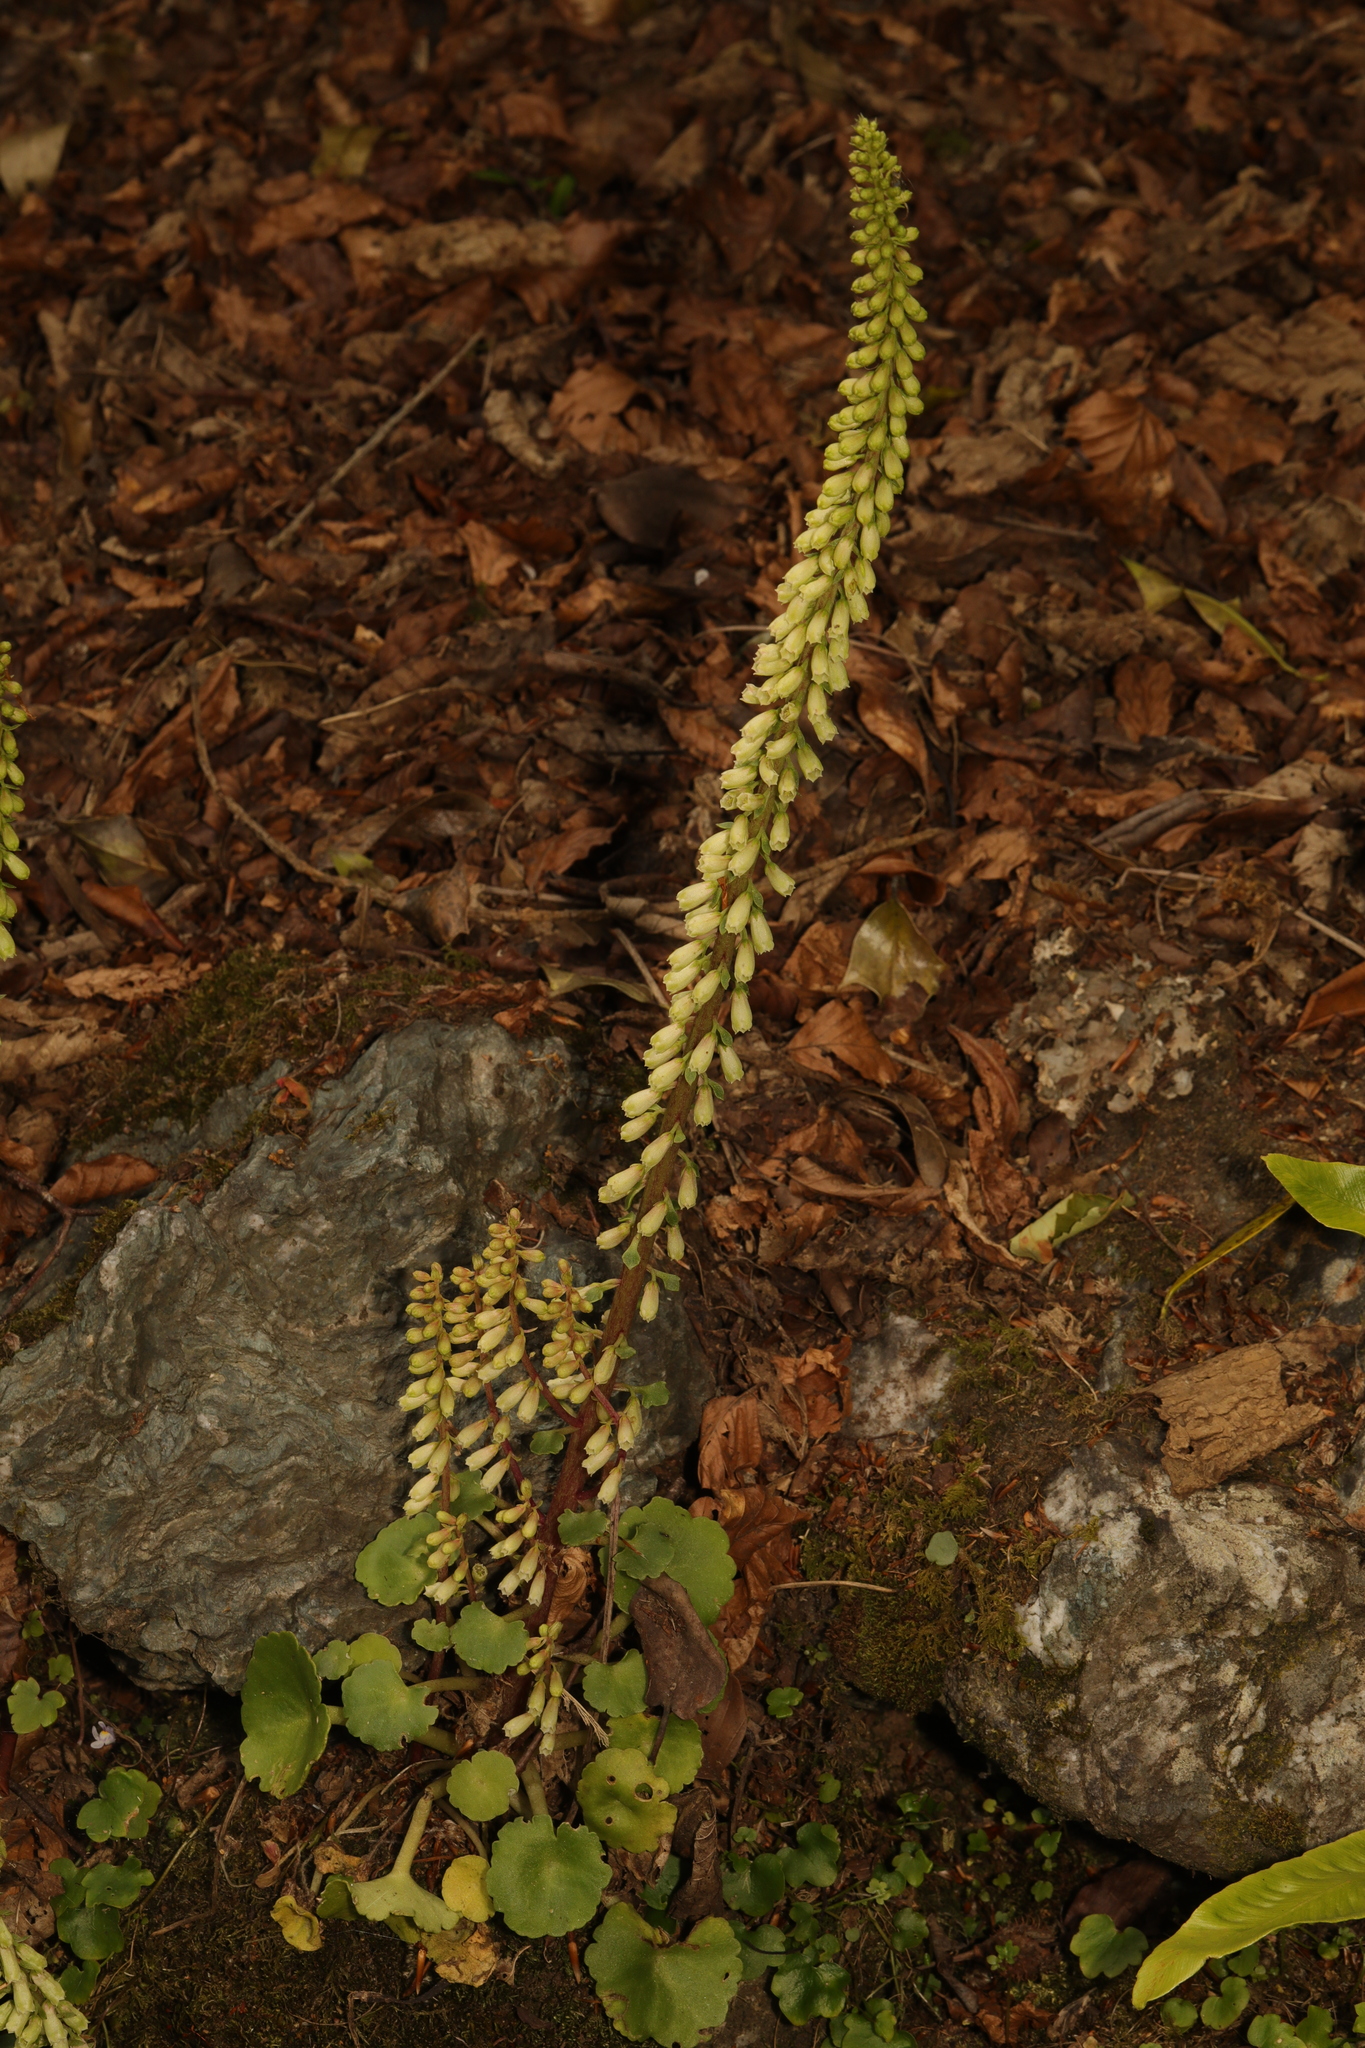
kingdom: Plantae
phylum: Tracheophyta
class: Magnoliopsida
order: Saxifragales
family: Crassulaceae
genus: Umbilicus
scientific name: Umbilicus rupestris
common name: Navelwort
